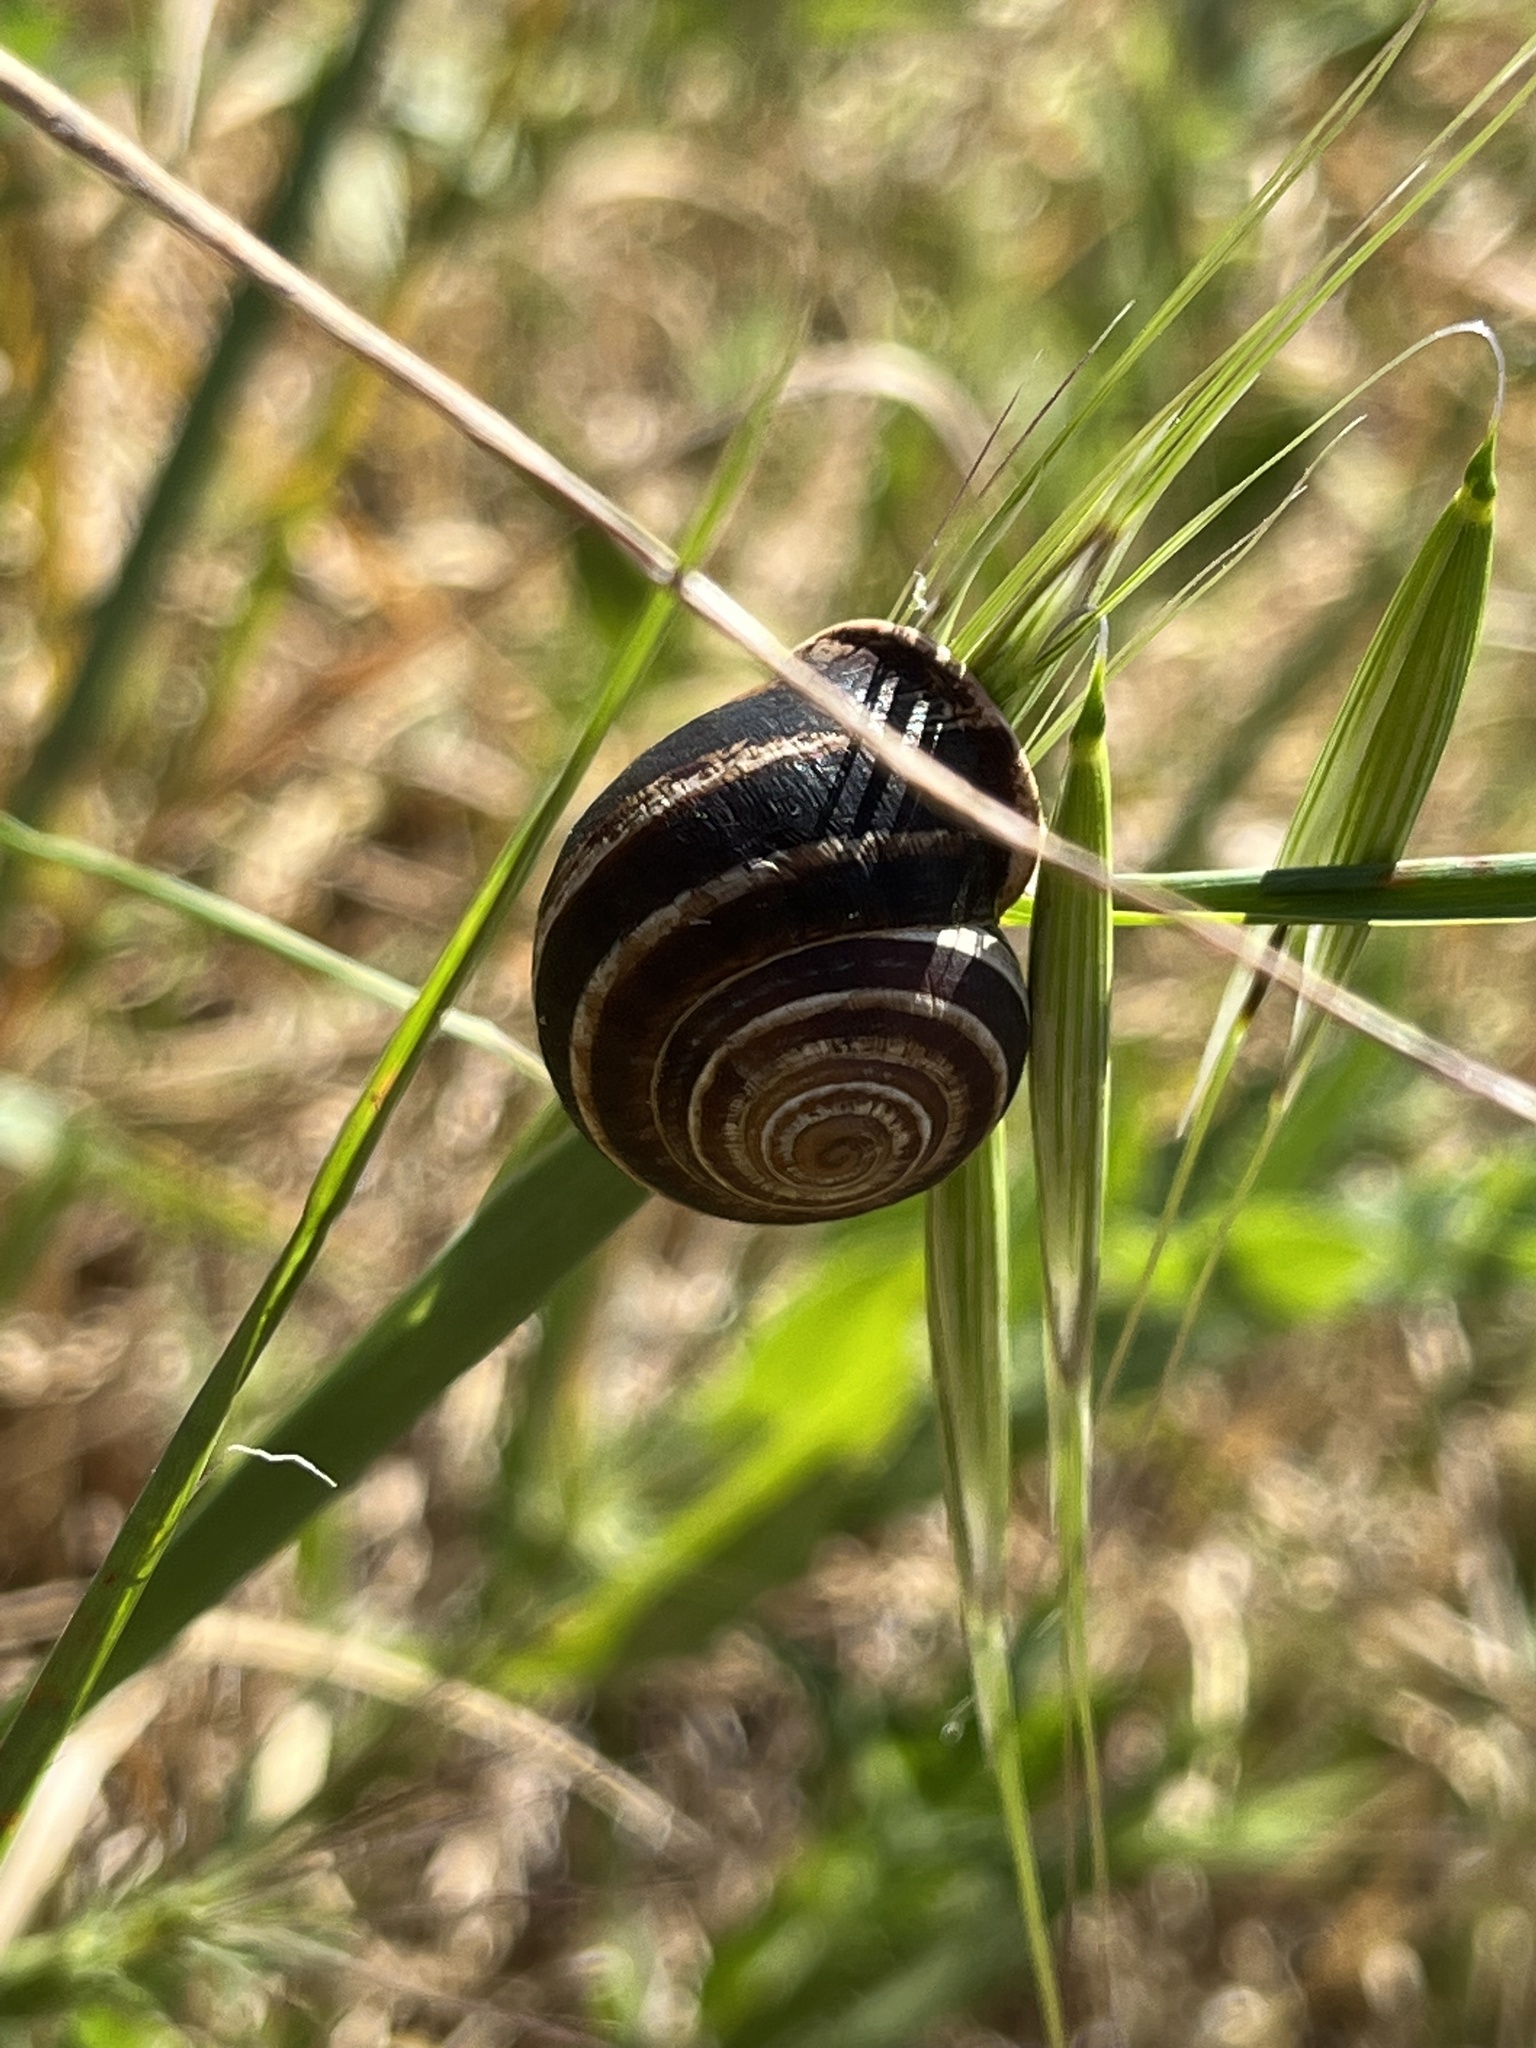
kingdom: Animalia
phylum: Mollusca
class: Gastropoda
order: Stylommatophora
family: Helicidae
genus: Otala
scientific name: Otala lactea
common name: Milk snail
